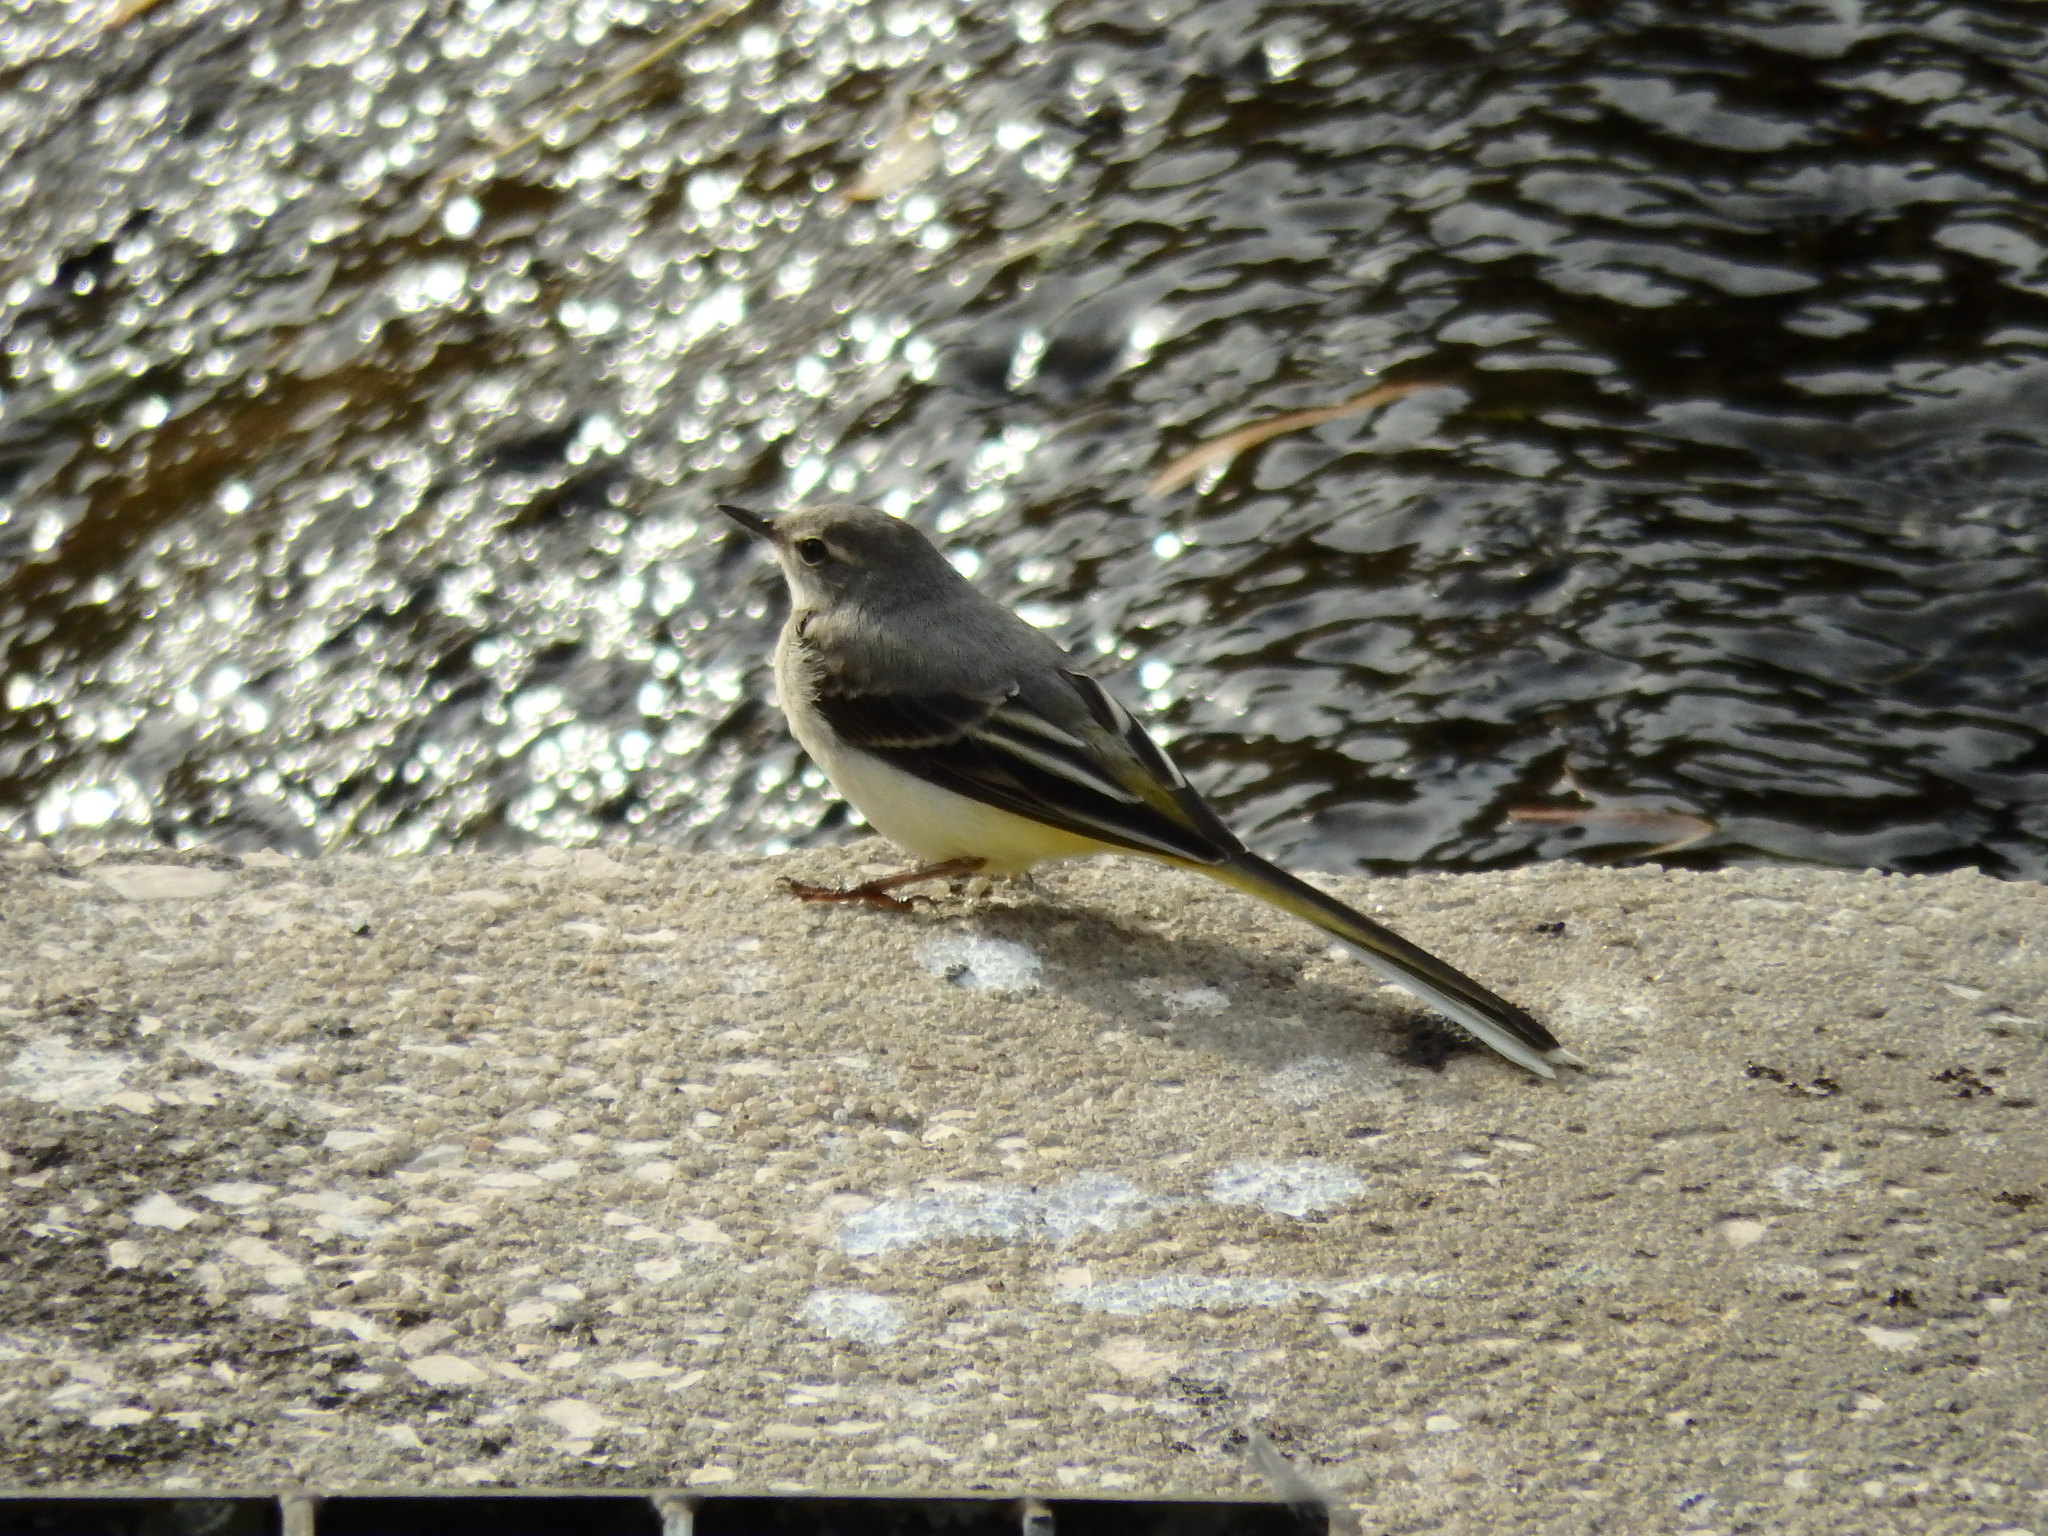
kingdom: Animalia
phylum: Chordata
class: Aves
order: Passeriformes
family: Motacillidae
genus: Motacilla
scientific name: Motacilla cinerea
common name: Grey wagtail
